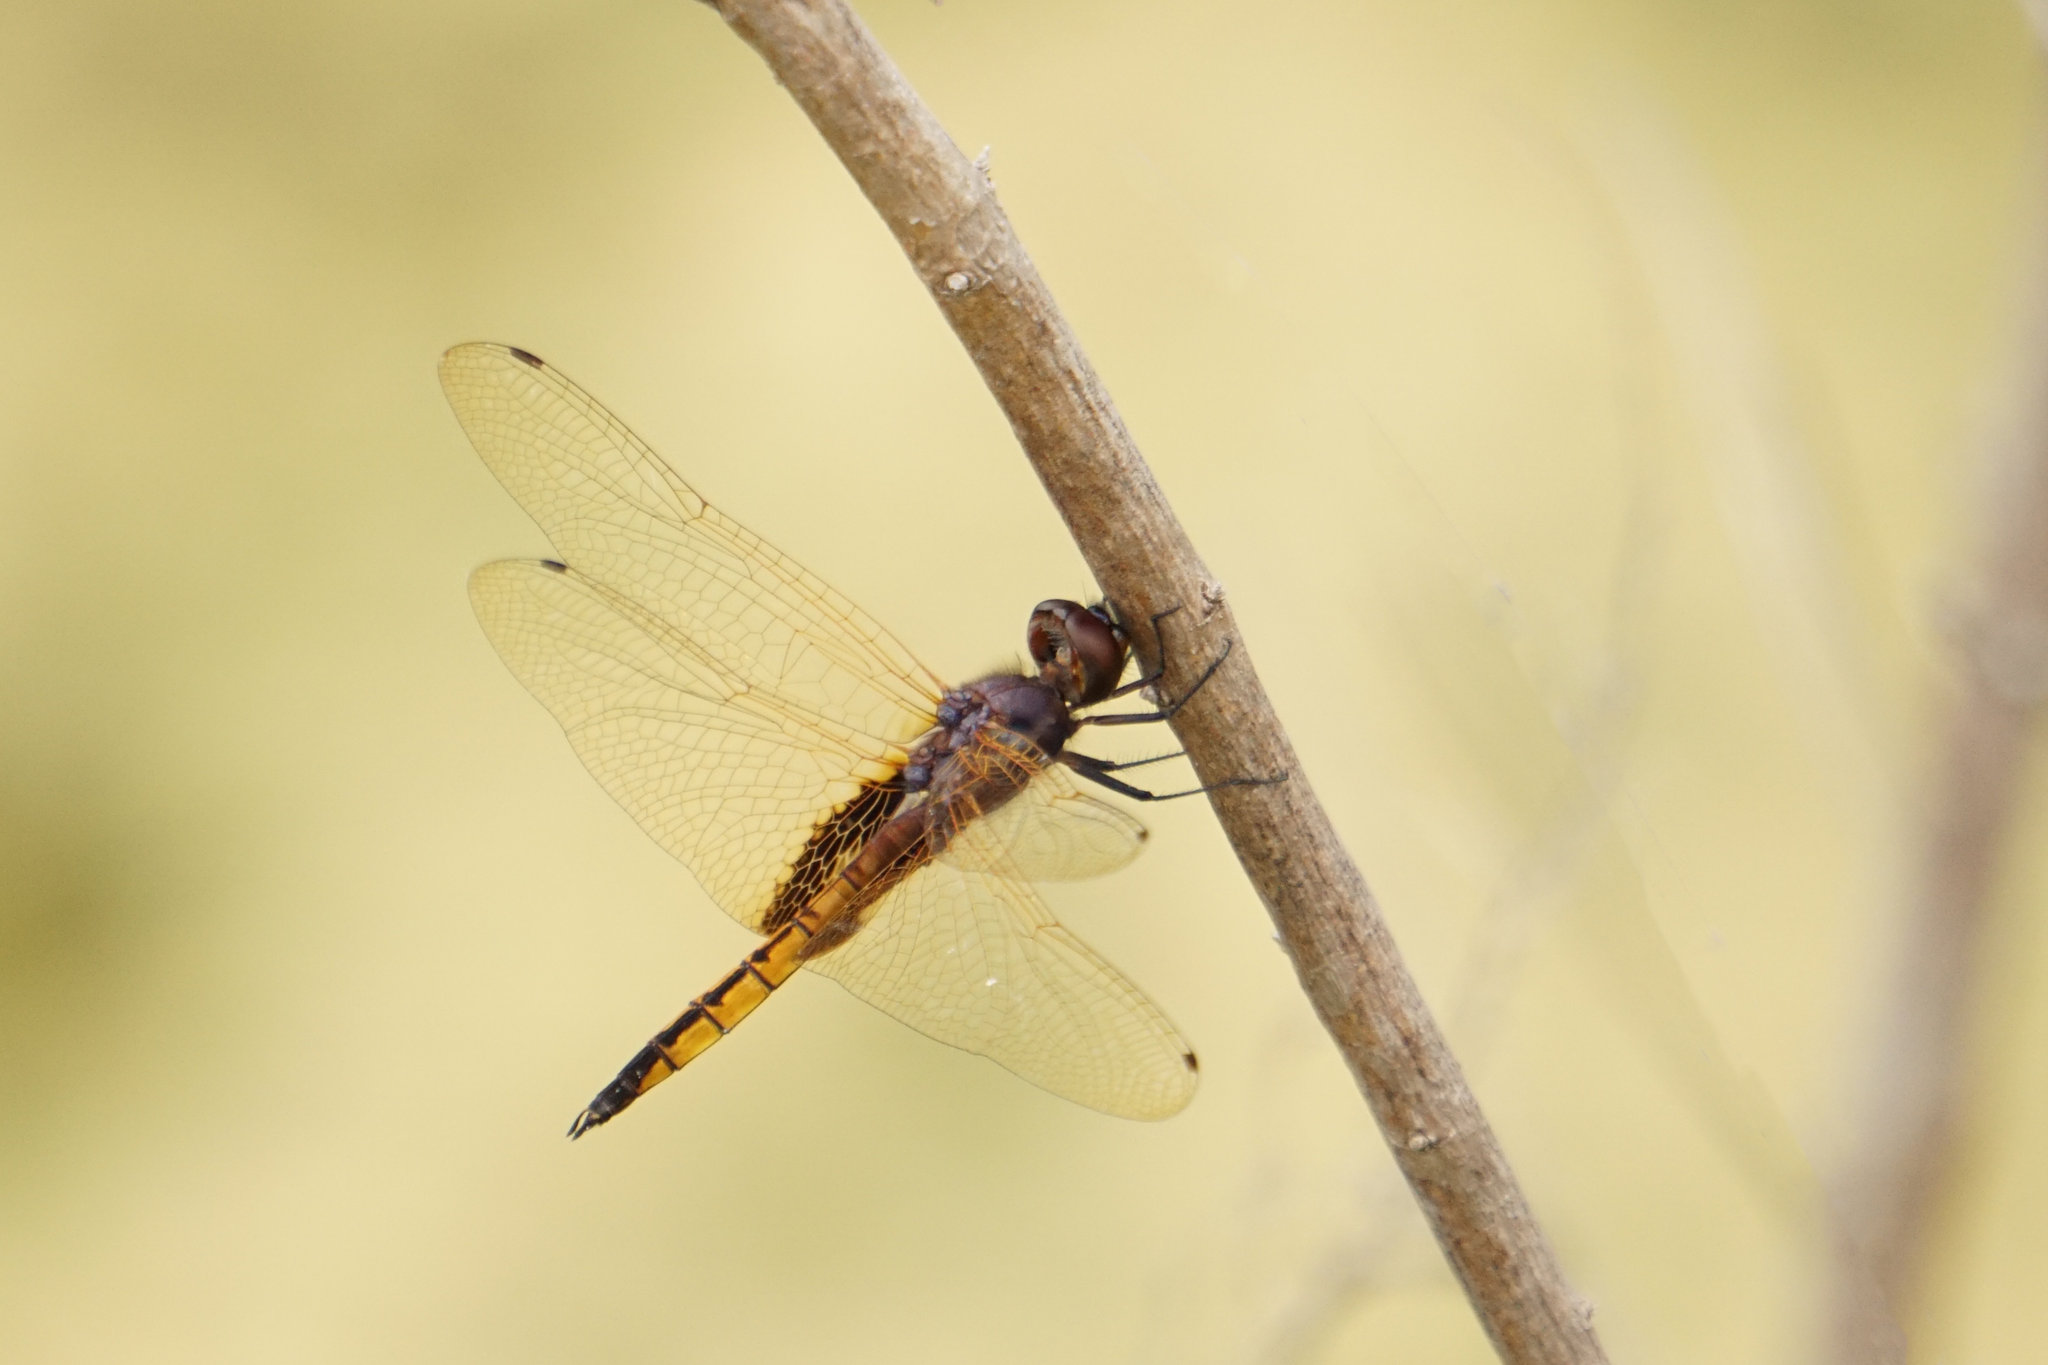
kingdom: Animalia
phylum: Arthropoda
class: Insecta
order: Odonata
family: Libellulidae
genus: Miathyria
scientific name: Miathyria marcella
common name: Hyacinth glider
